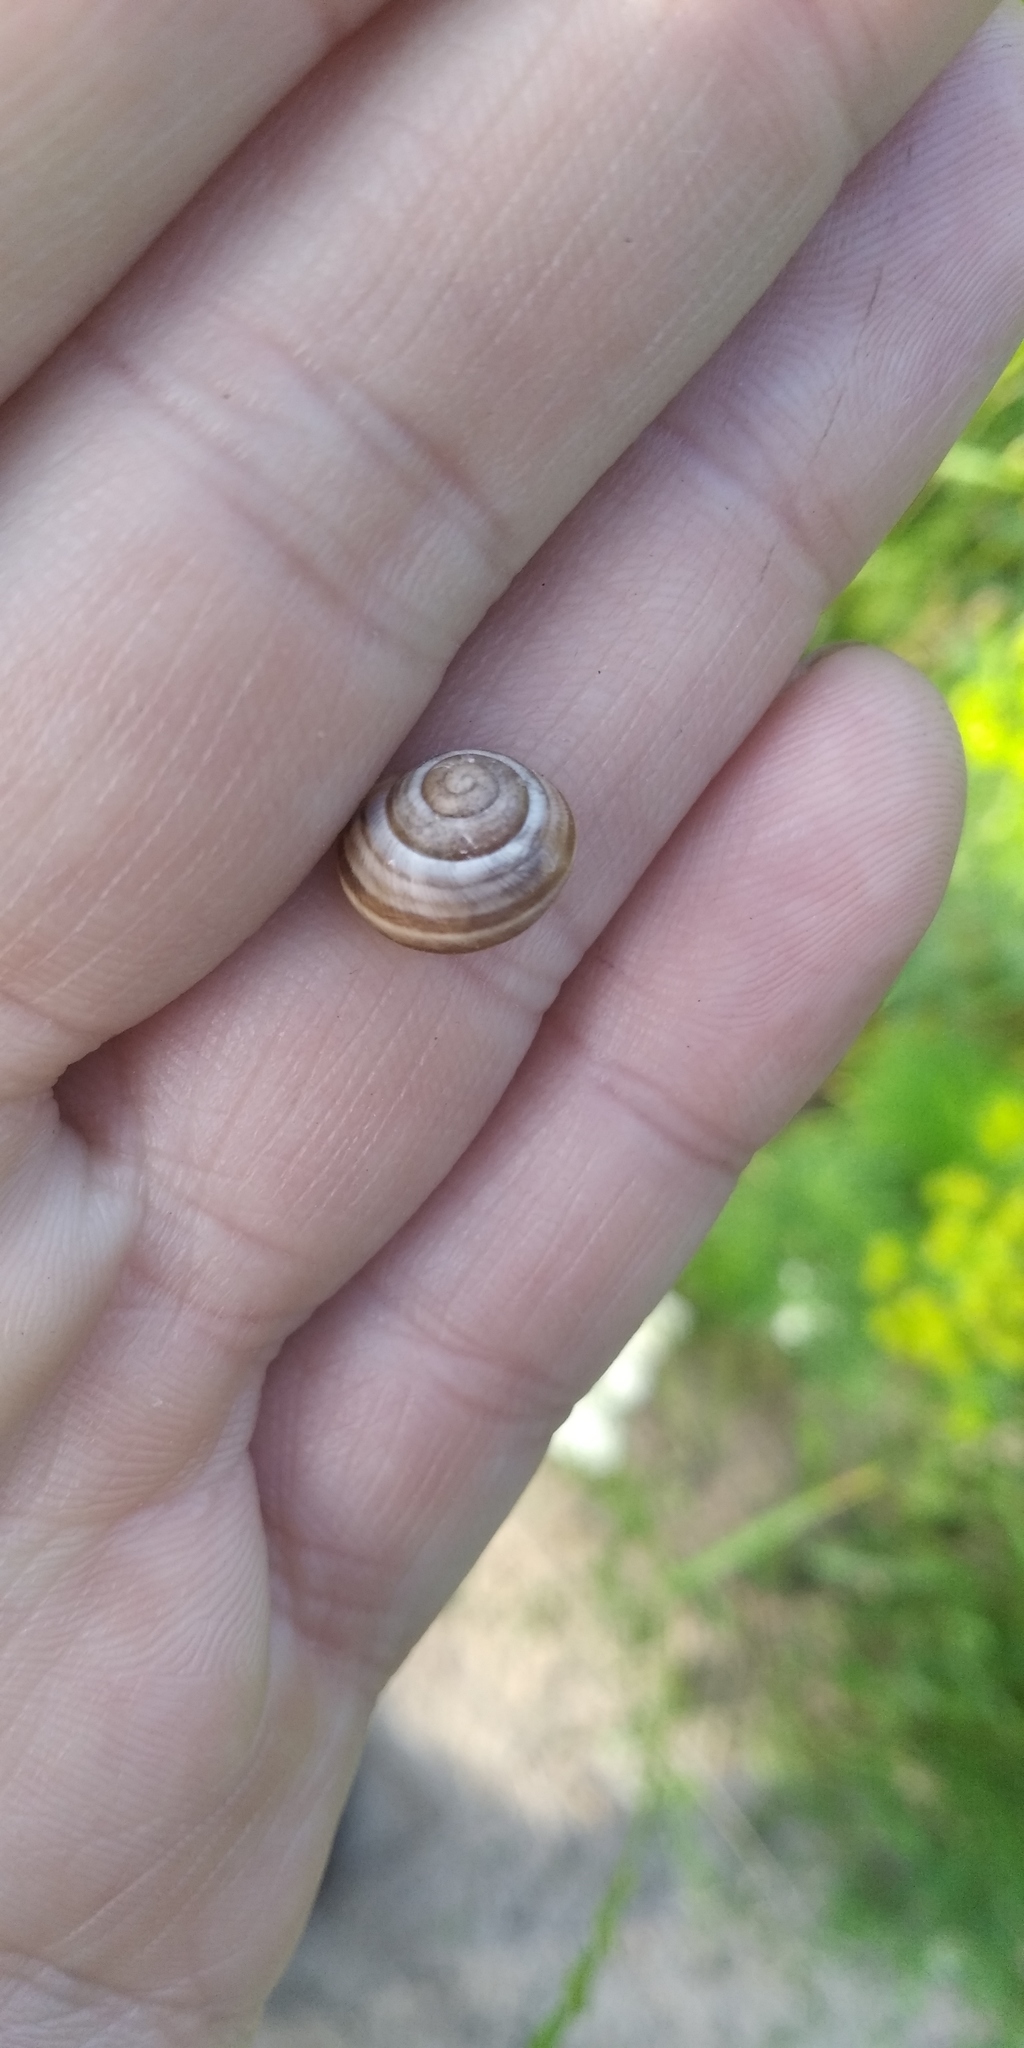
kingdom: Animalia
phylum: Mollusca
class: Gastropoda
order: Stylommatophora
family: Helicidae
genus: Caucasotachea
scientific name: Caucasotachea vindobonensis
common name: European helicid land snail
